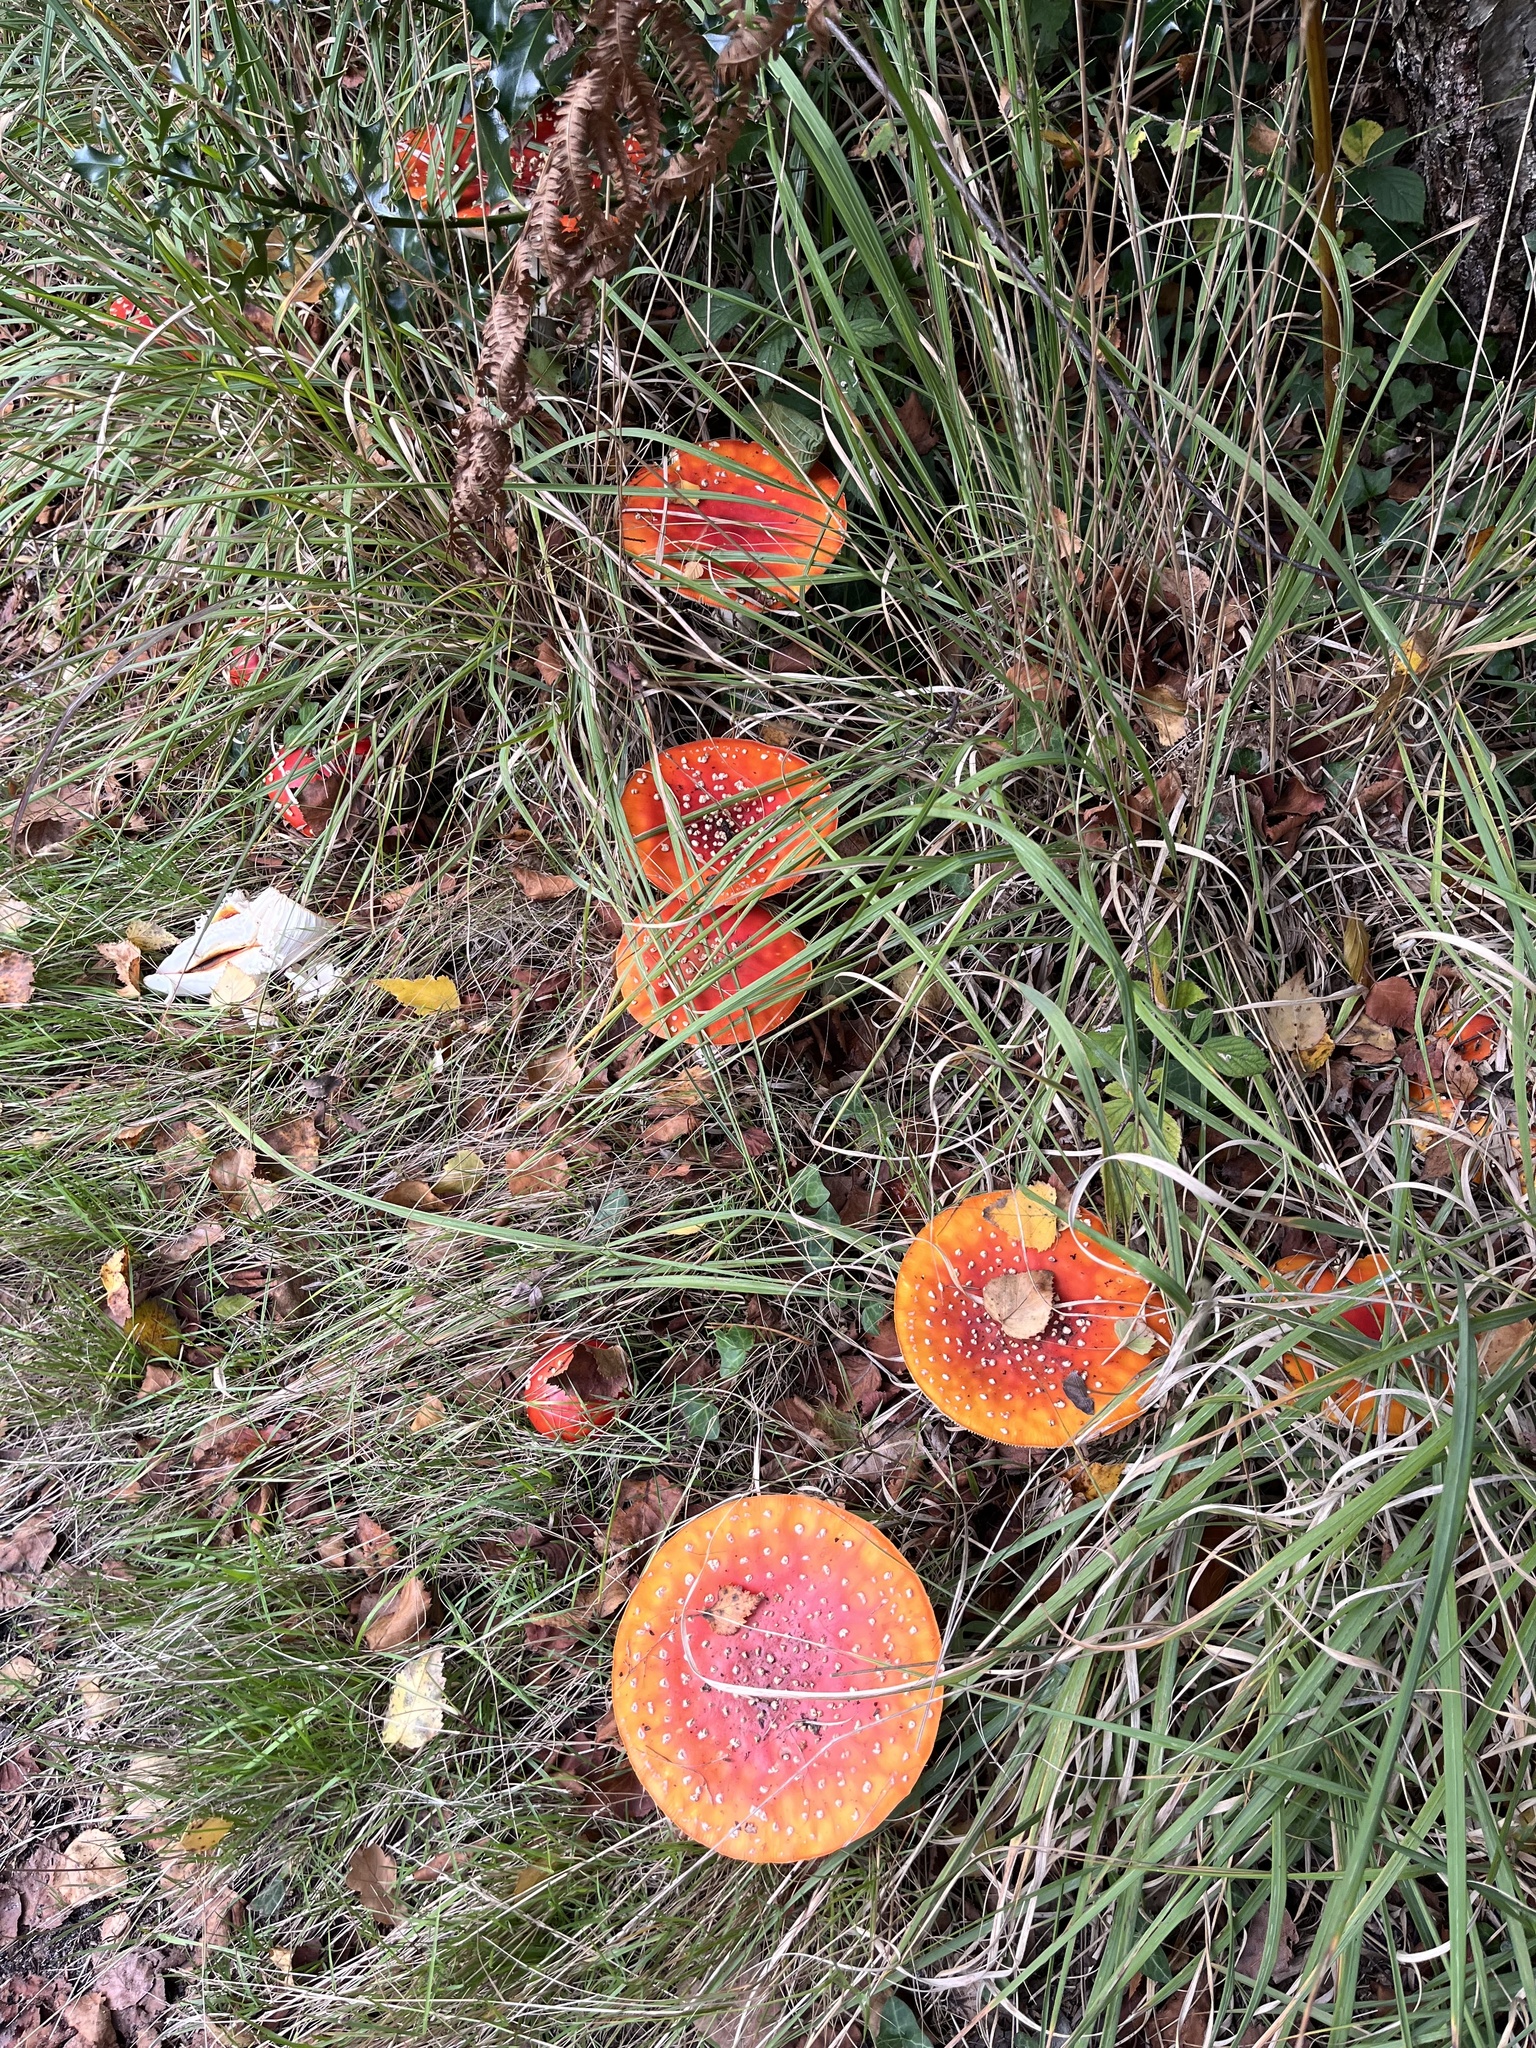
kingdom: Fungi
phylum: Basidiomycota
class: Agaricomycetes
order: Agaricales
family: Amanitaceae
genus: Amanita
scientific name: Amanita muscaria
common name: Fly agaric
